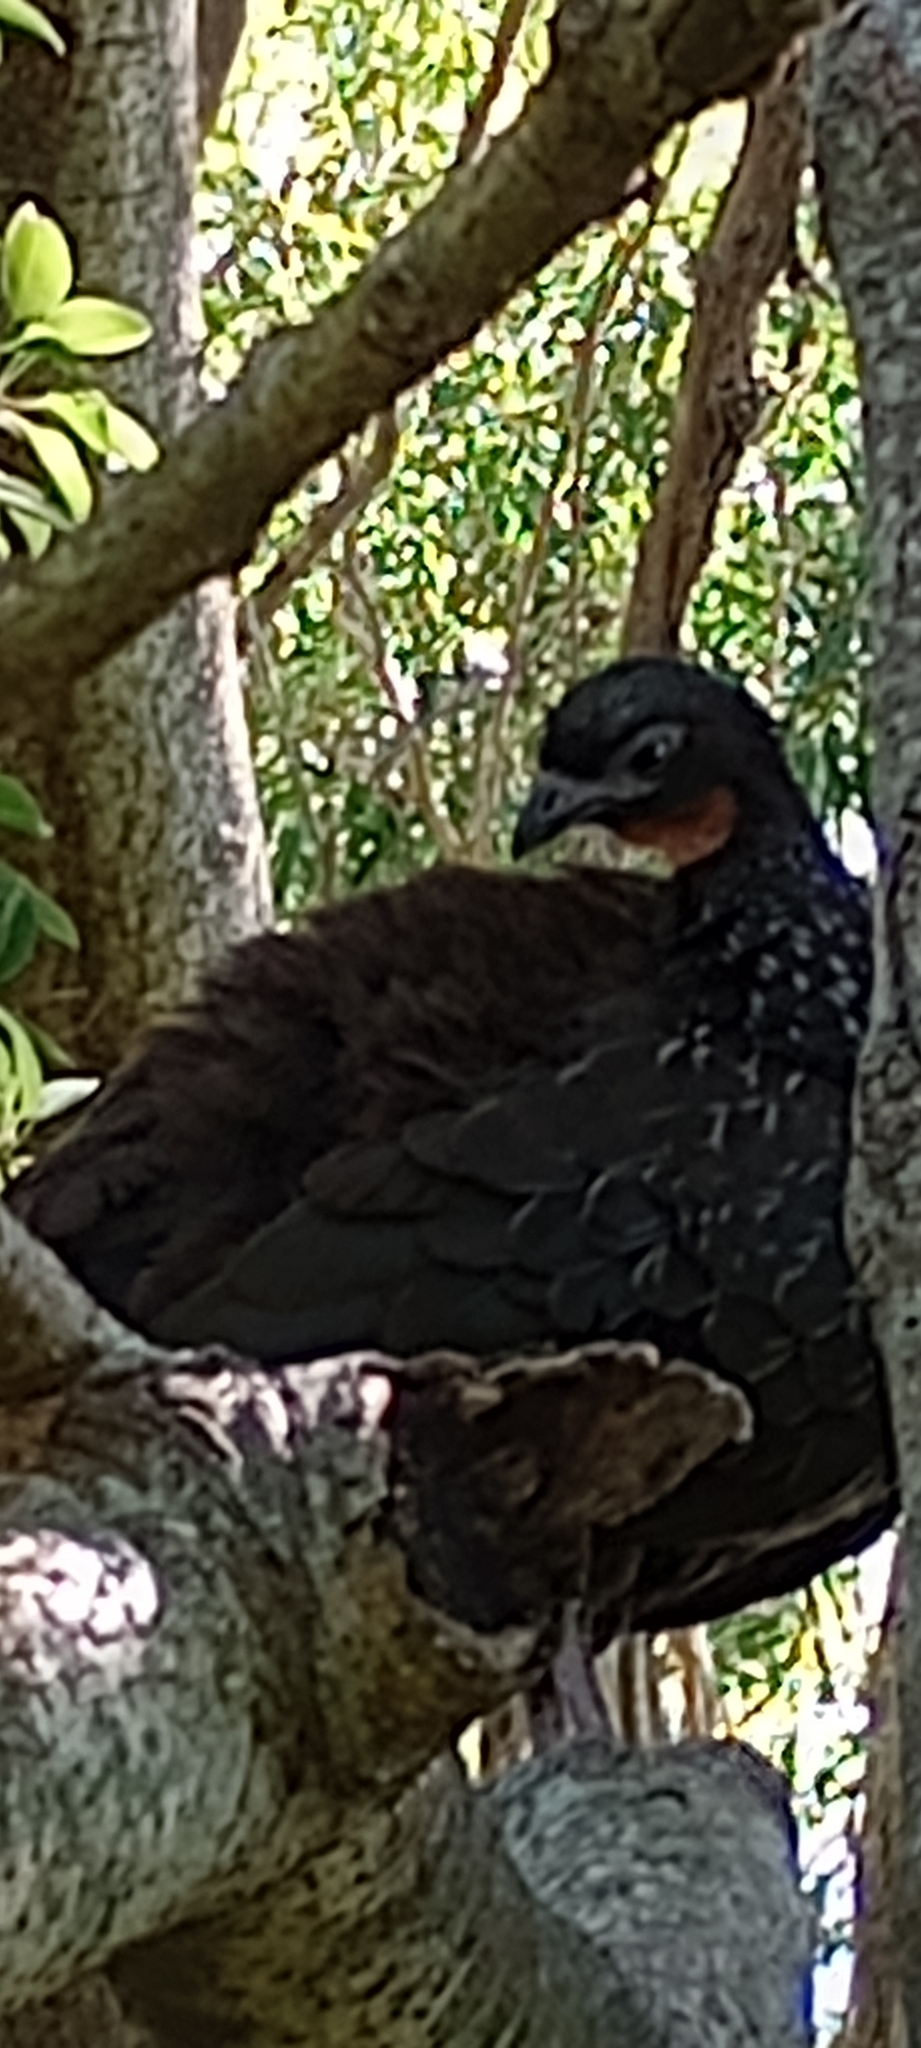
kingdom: Animalia
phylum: Chordata
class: Aves
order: Galliformes
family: Cracidae
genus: Penelope
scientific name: Penelope obscura
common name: Dusky-legged guan
